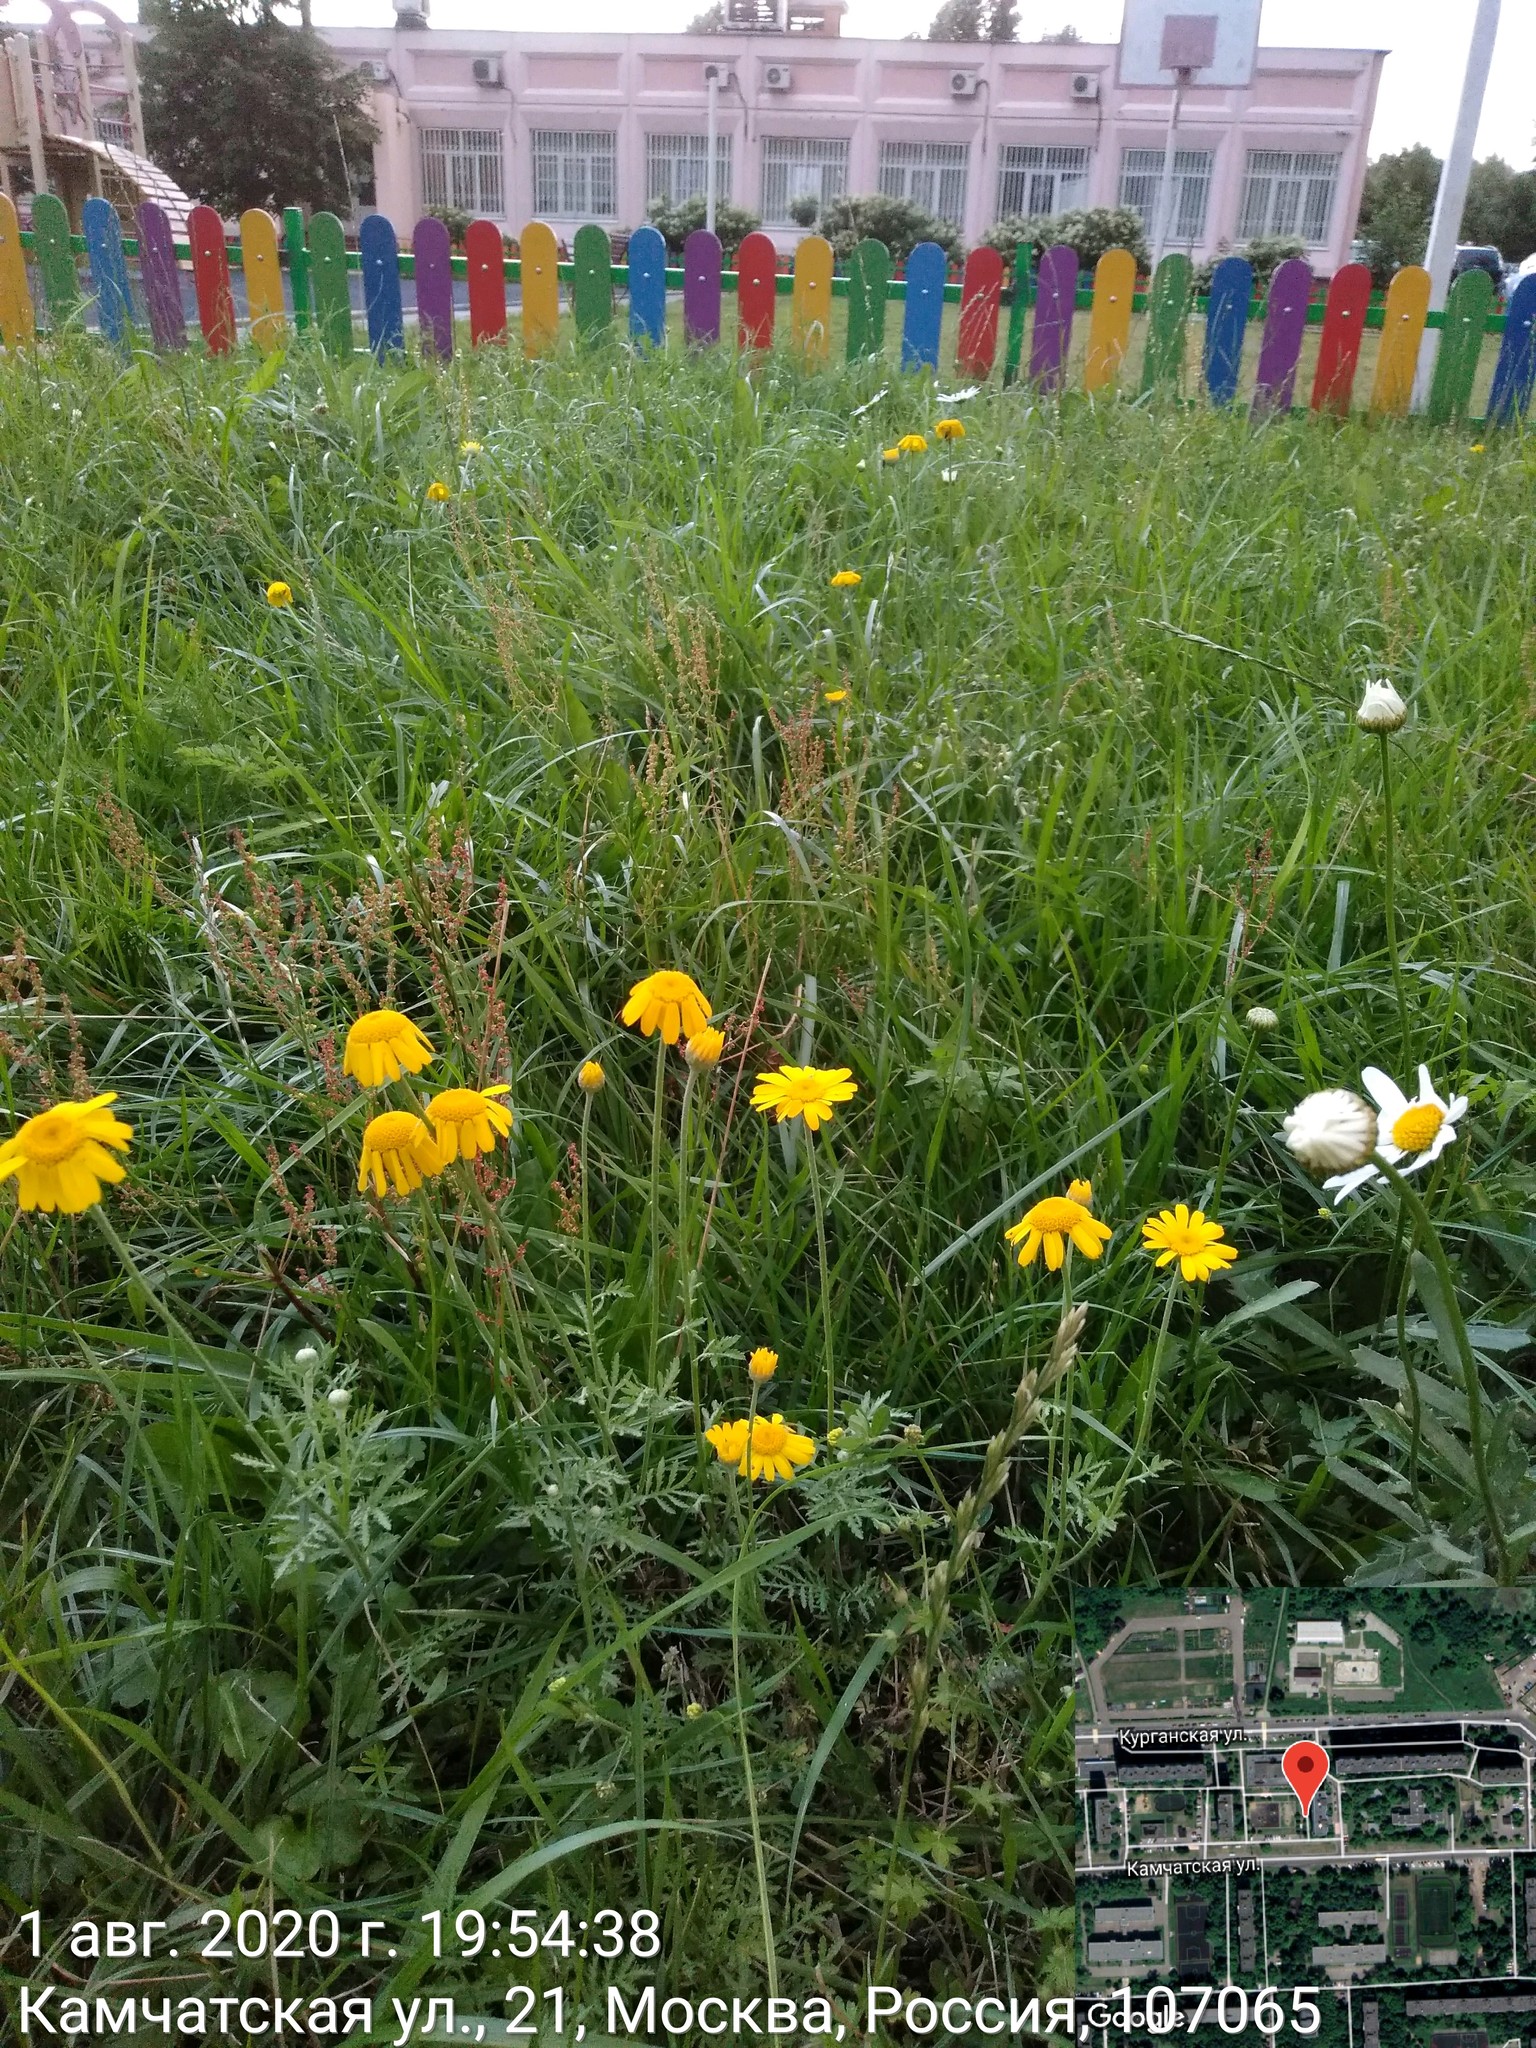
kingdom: Plantae
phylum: Tracheophyta
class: Magnoliopsida
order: Asterales
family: Asteraceae
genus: Cota
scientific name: Cota tinctoria
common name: Golden chamomile
